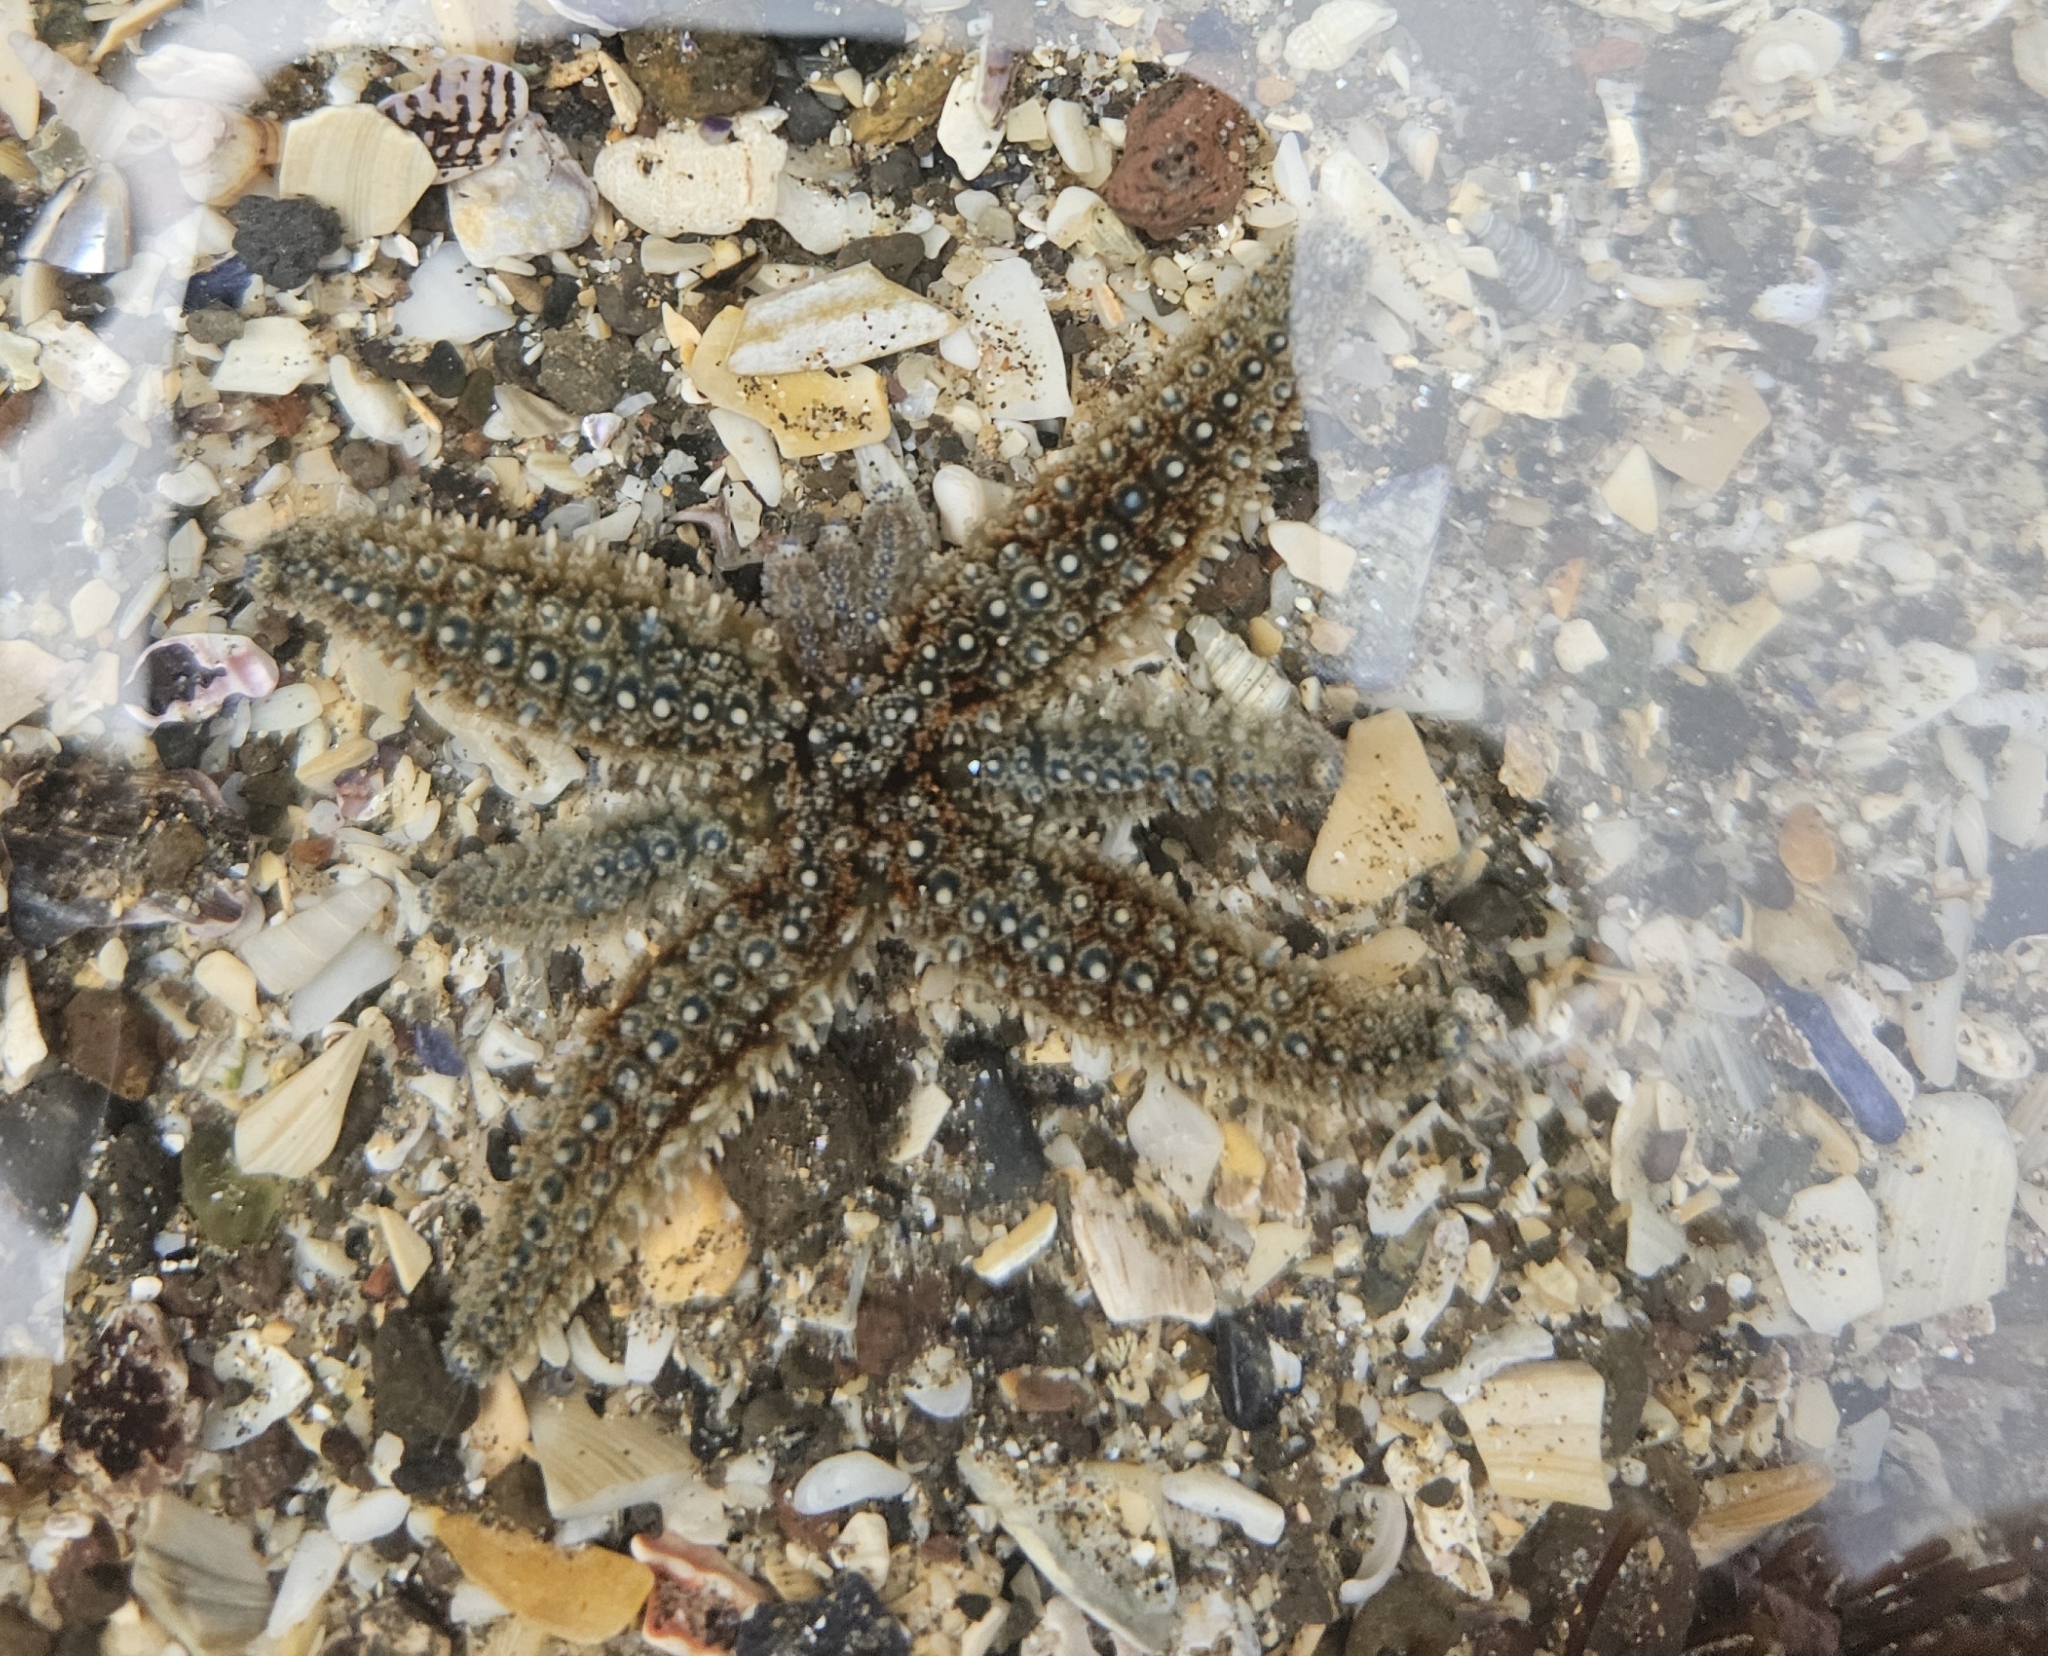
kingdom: Animalia
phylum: Echinodermata
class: Asteroidea
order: Forcipulatida
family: Asteriidae
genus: Coscinasterias
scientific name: Coscinasterias muricata
